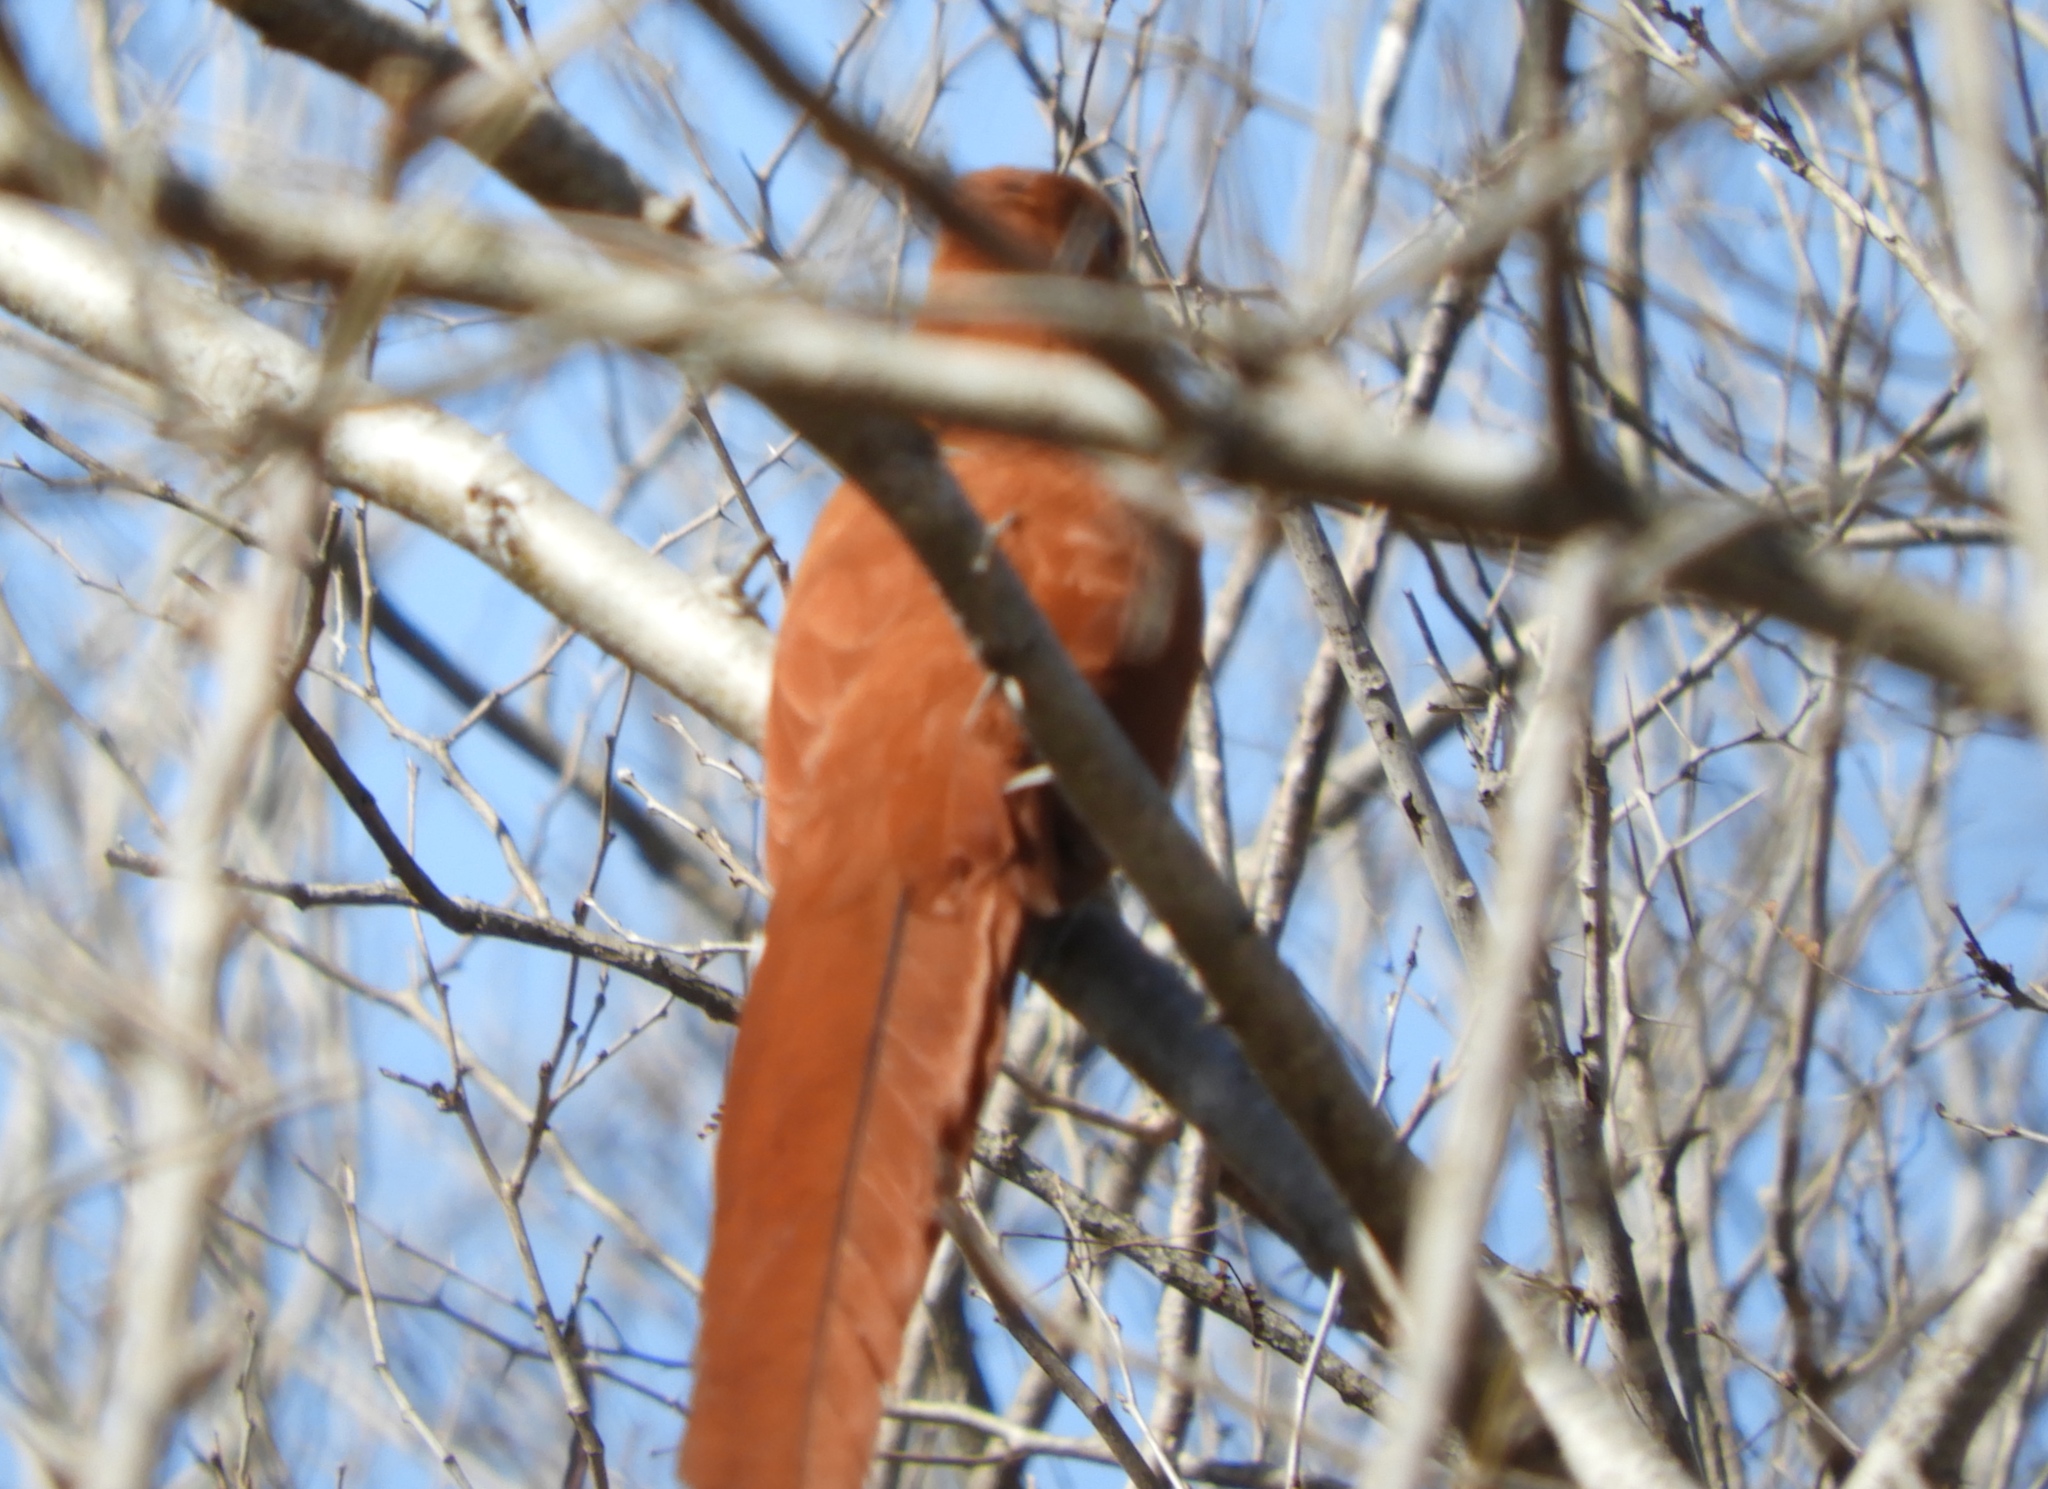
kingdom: Animalia
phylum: Chordata
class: Aves
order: Cuculiformes
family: Cuculidae
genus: Piaya
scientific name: Piaya cayana
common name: Squirrel cuckoo
